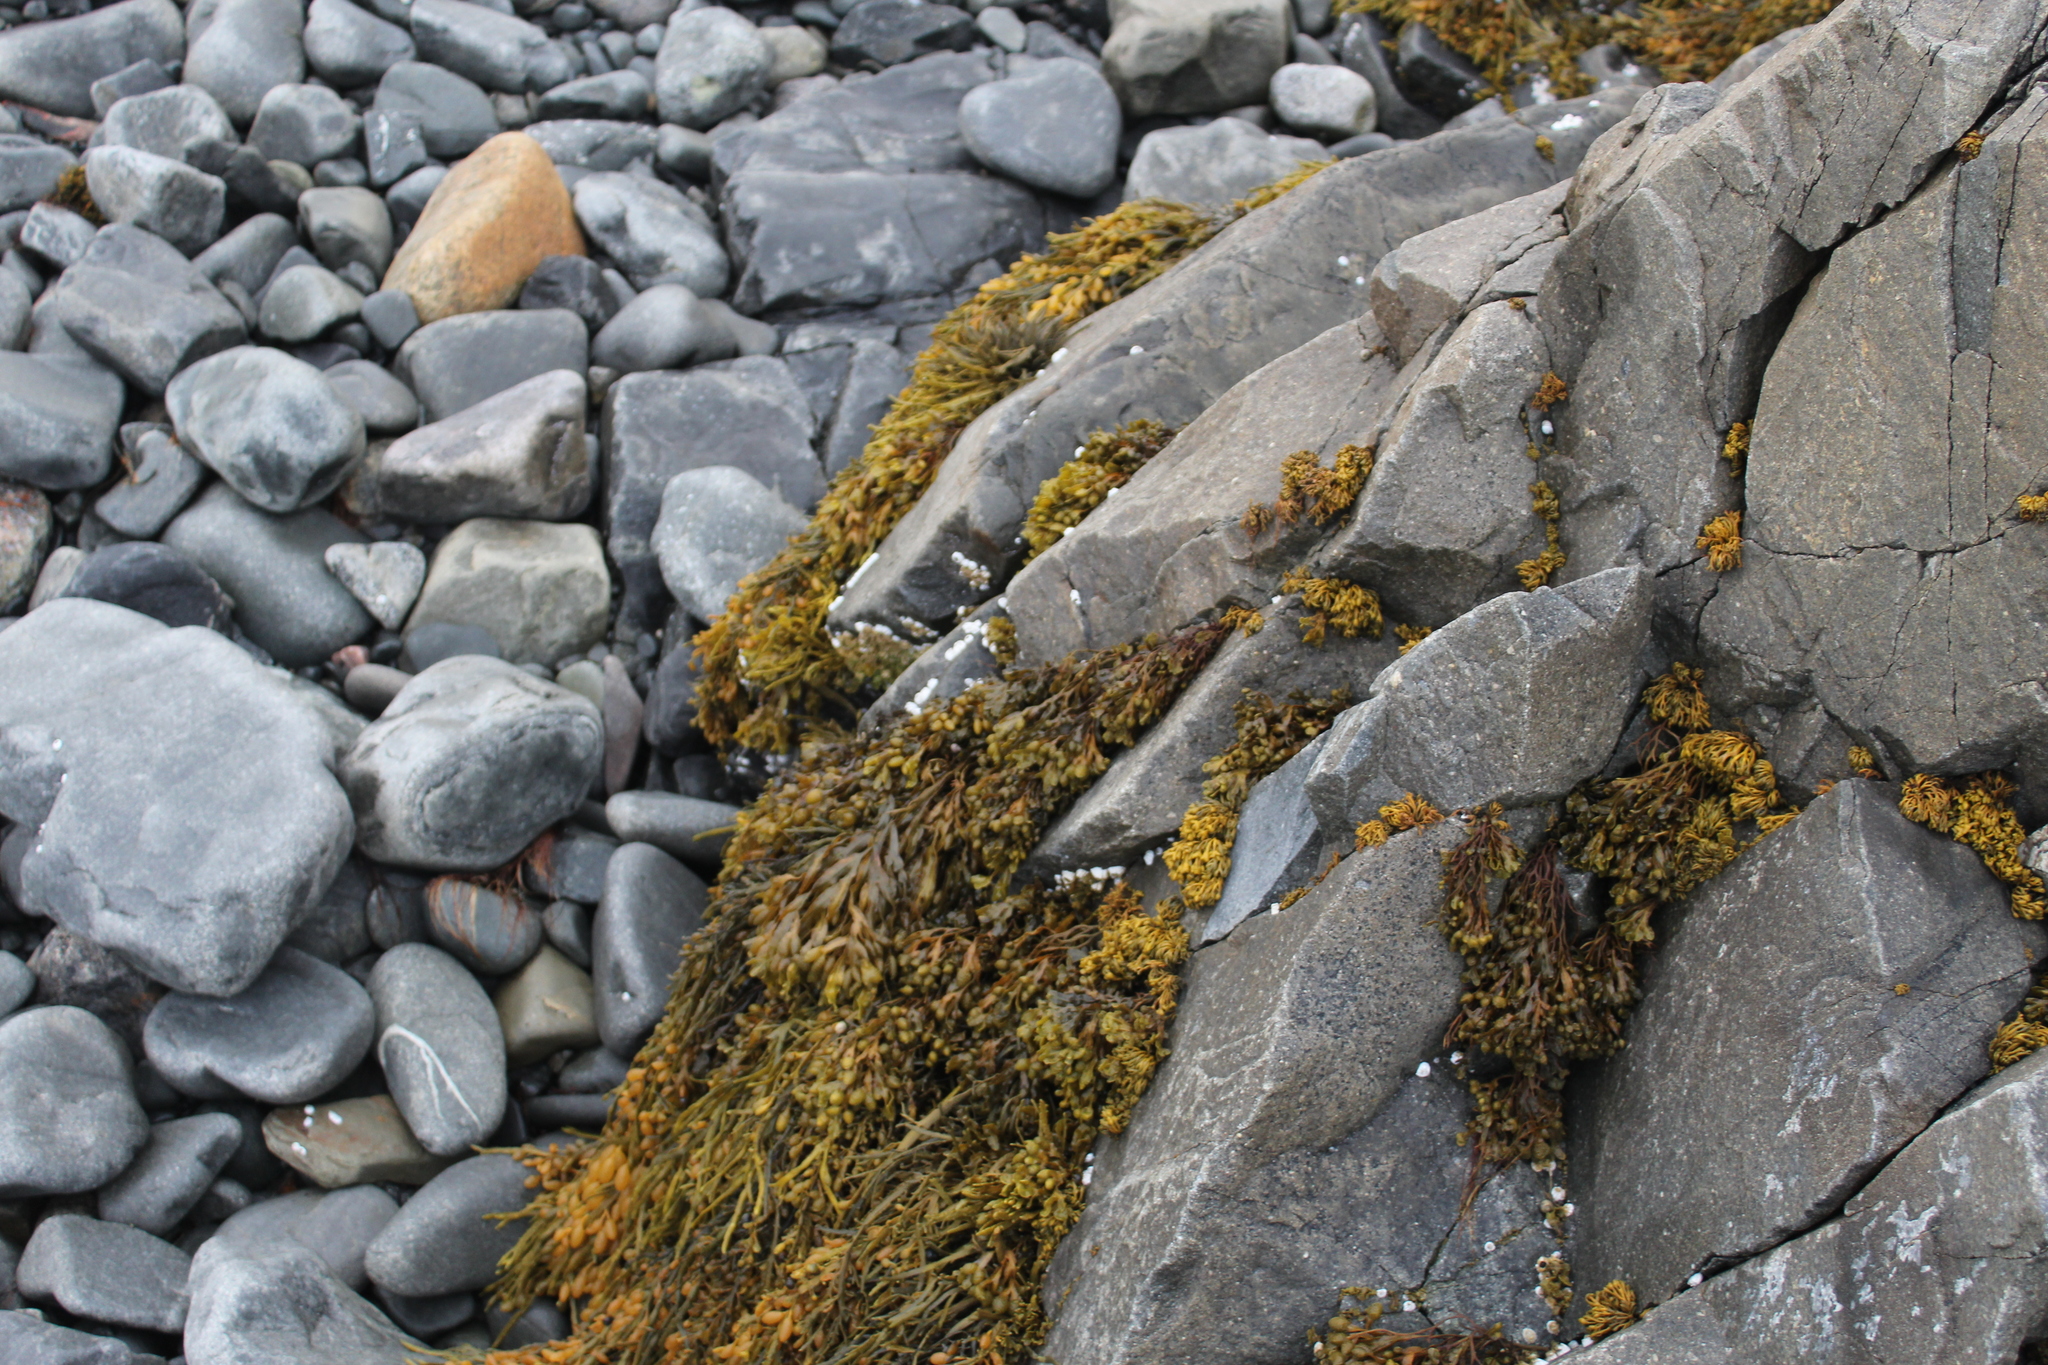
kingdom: Chromista
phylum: Ochrophyta
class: Phaeophyceae
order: Fucales
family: Fucaceae
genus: Fucus
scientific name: Fucus vesiculosus
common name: Bladder wrack
